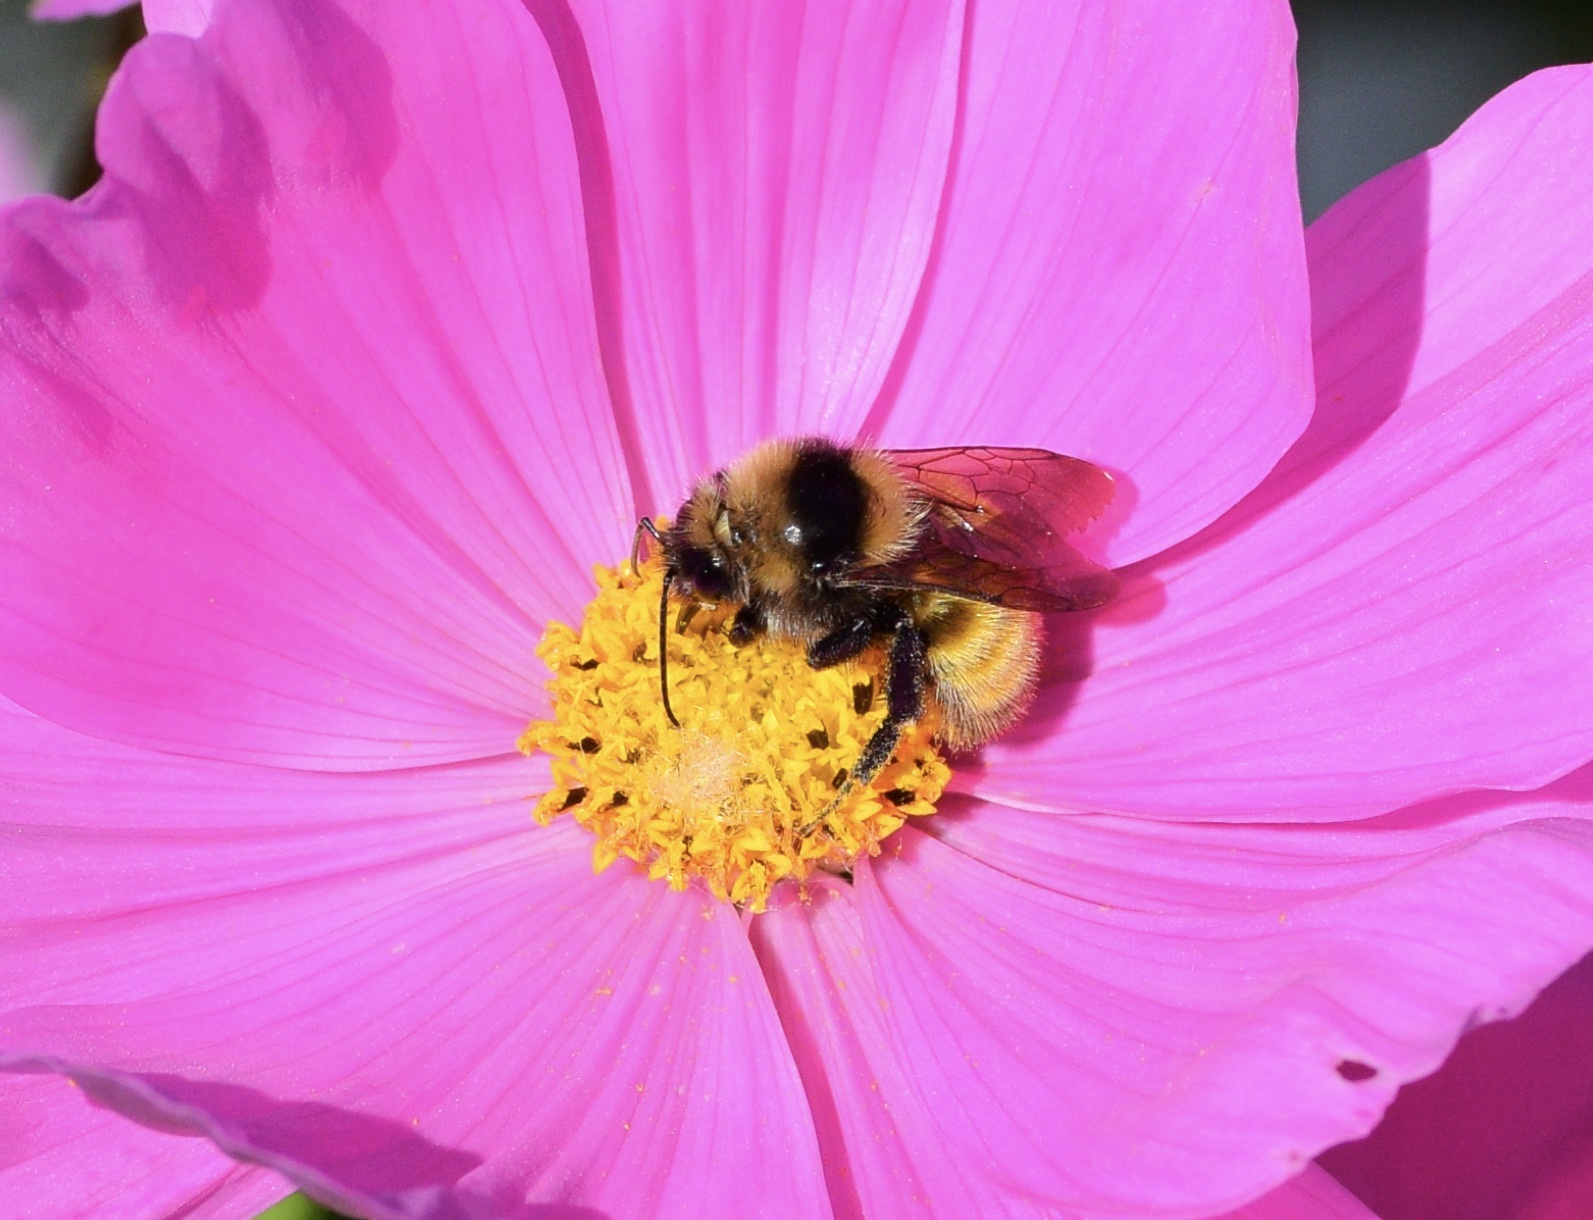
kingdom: Animalia
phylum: Arthropoda
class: Insecta
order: Hymenoptera
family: Apidae
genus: Bombus
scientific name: Bombus borealis
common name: Northern amber bumble bee
